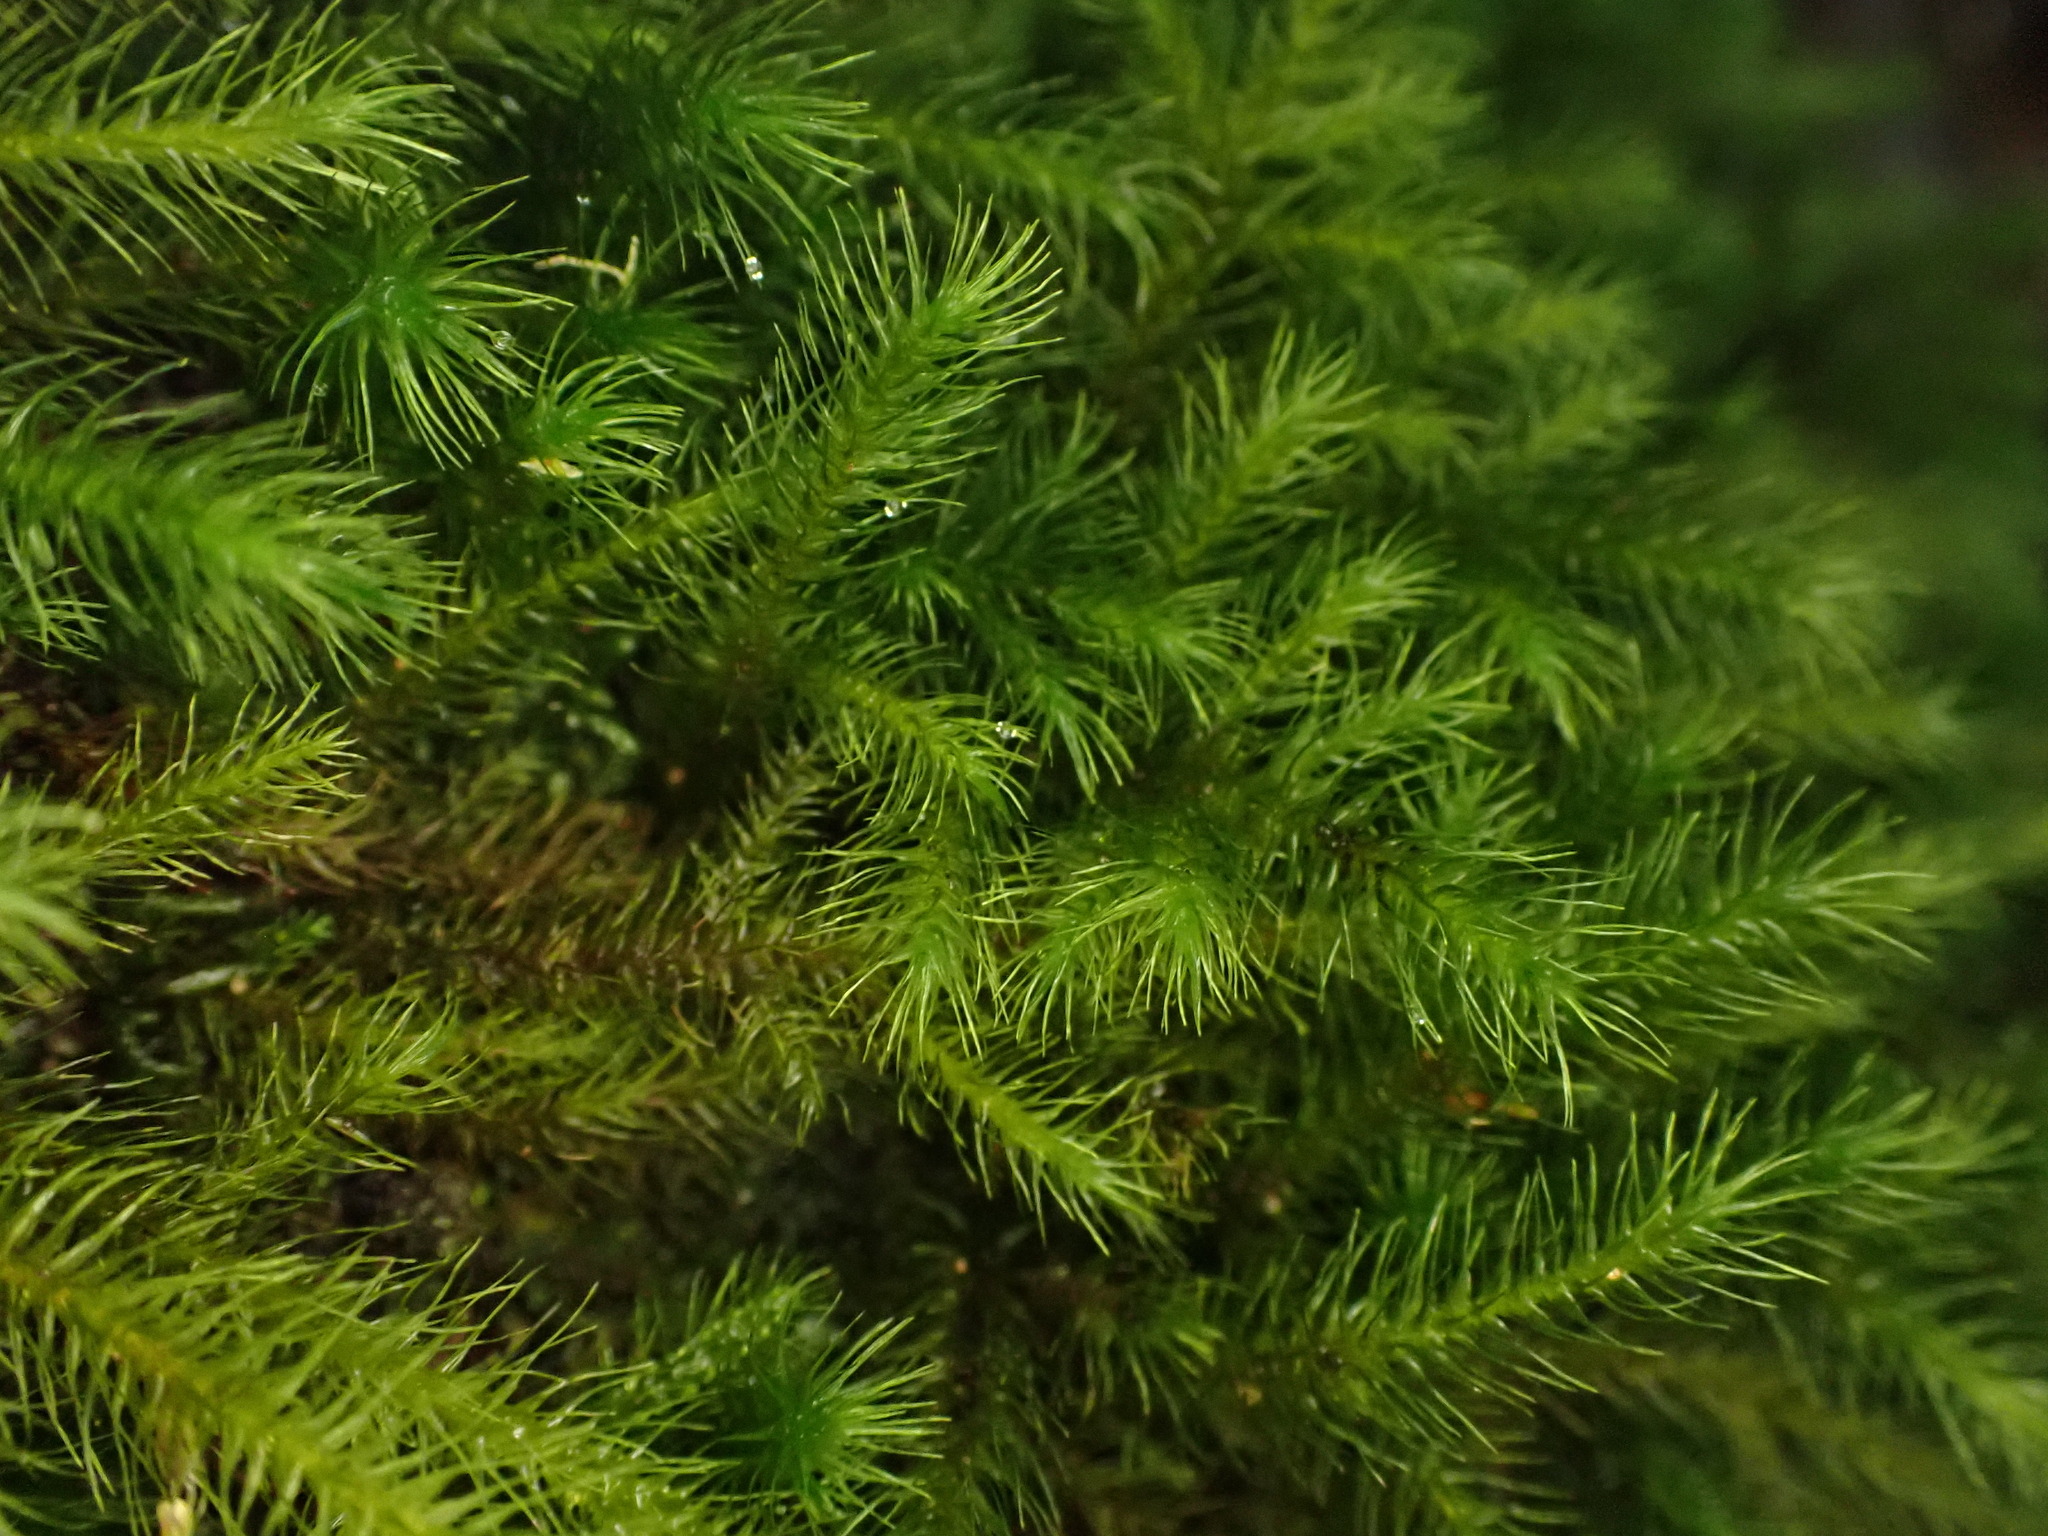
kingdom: Plantae
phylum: Bryophyta
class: Bryopsida
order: Hypnales
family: Neckeraceae
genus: Echinodiopsis
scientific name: Echinodiopsis hispida
